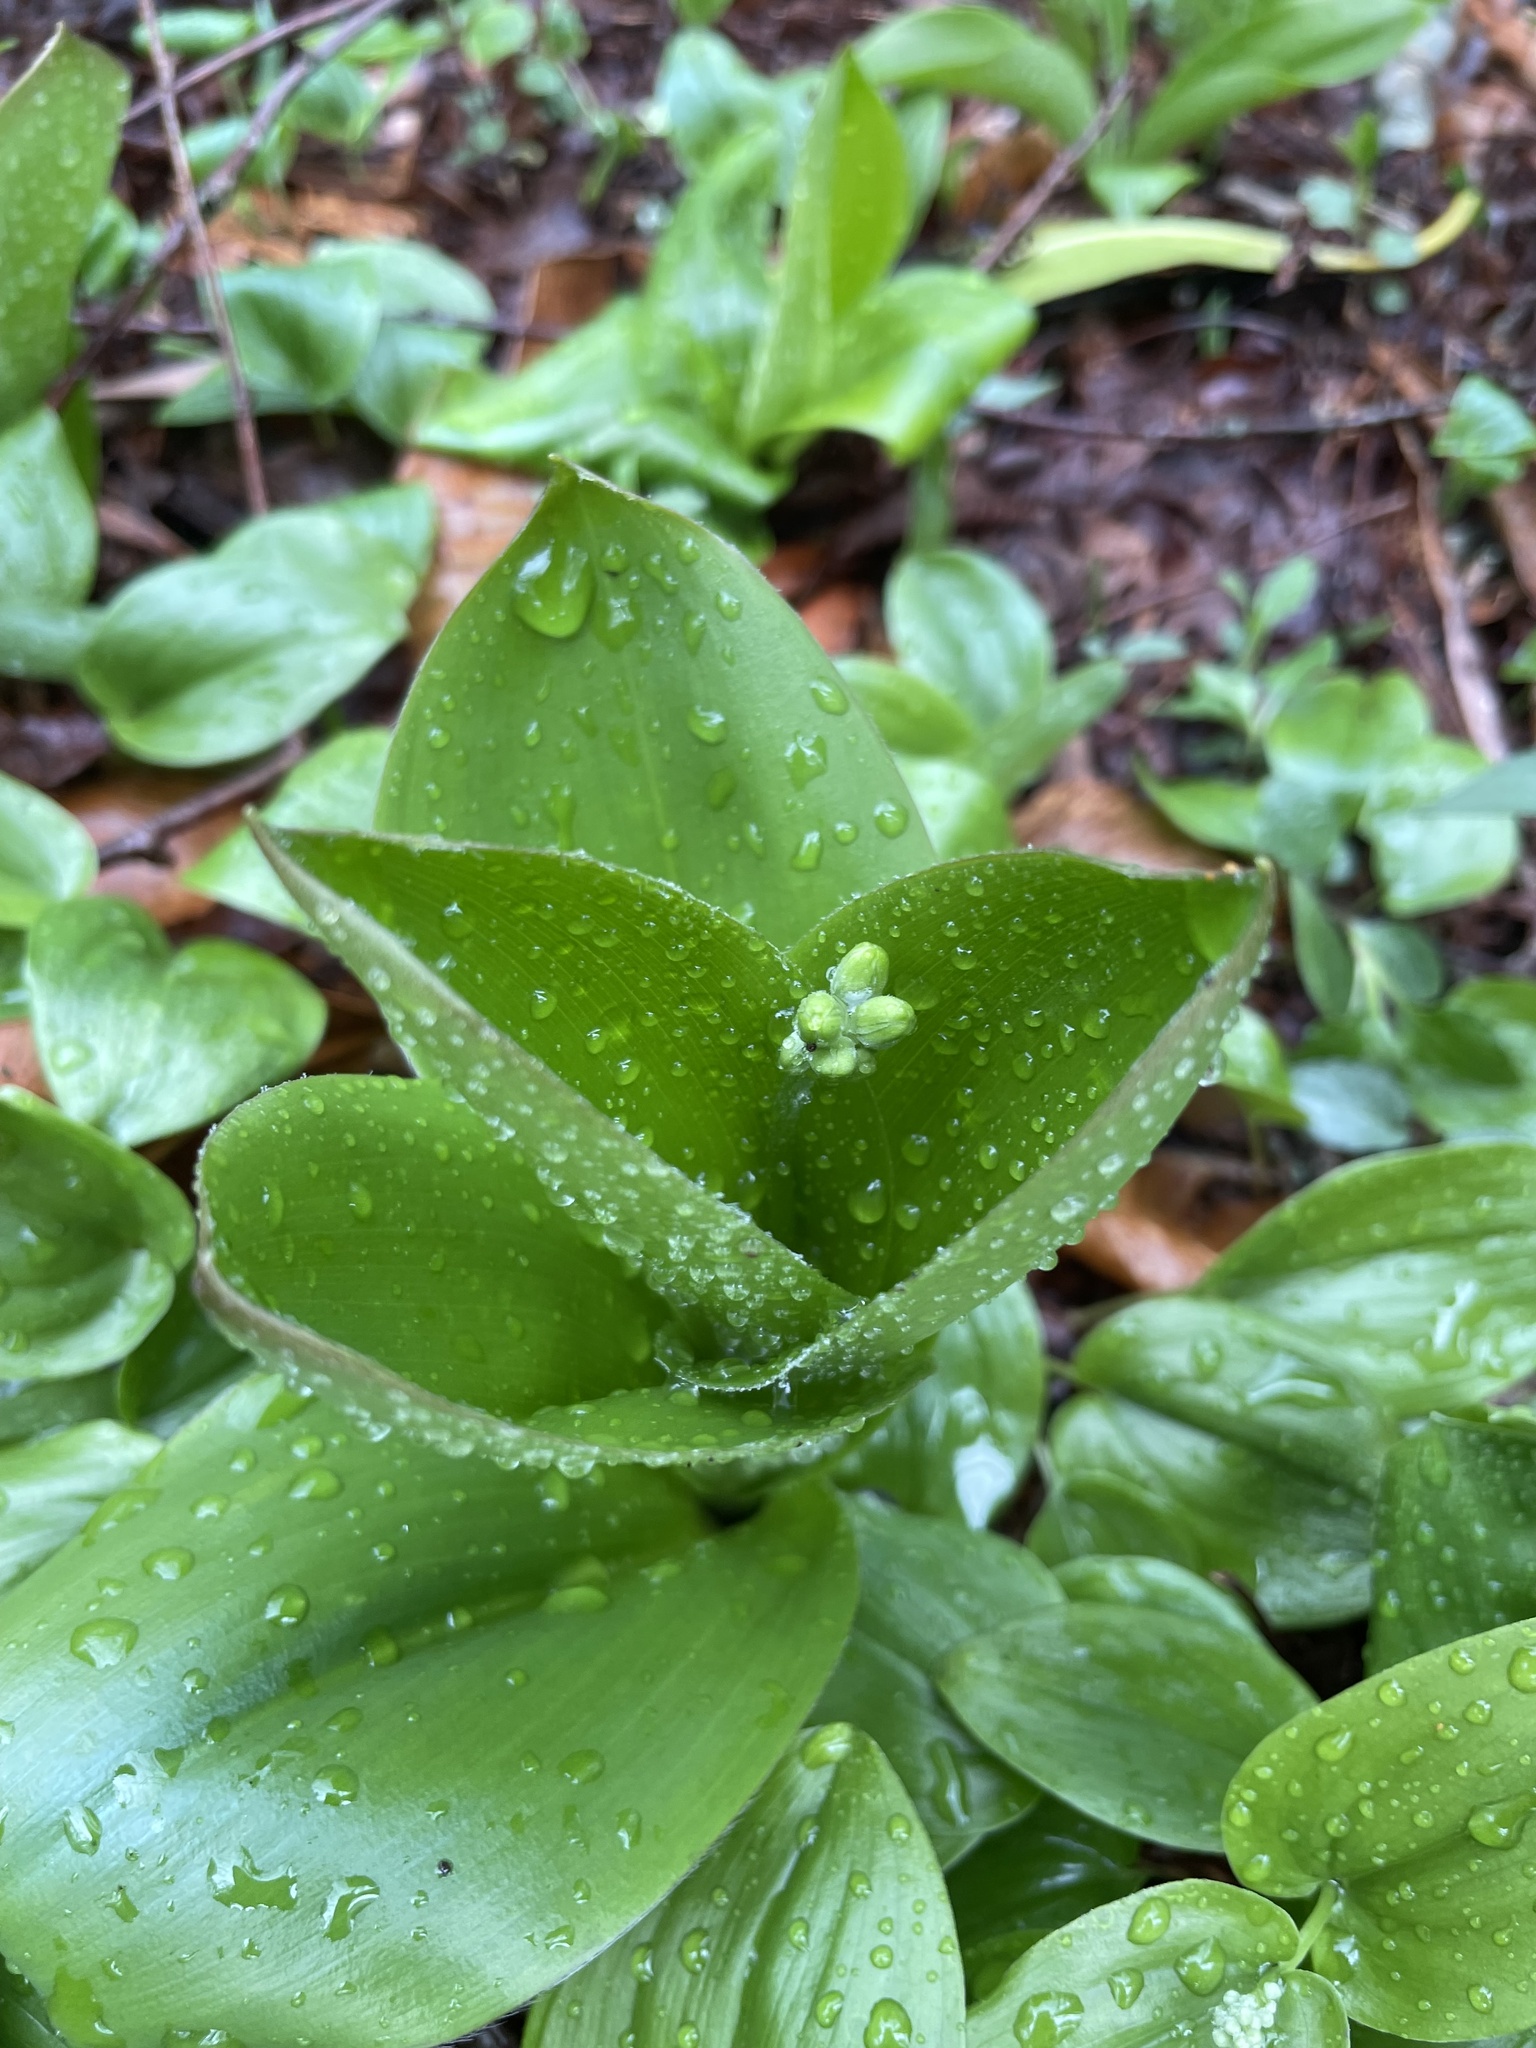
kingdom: Plantae
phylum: Tracheophyta
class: Liliopsida
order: Liliales
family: Liliaceae
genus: Clintonia
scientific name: Clintonia borealis
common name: Yellow clintonia
